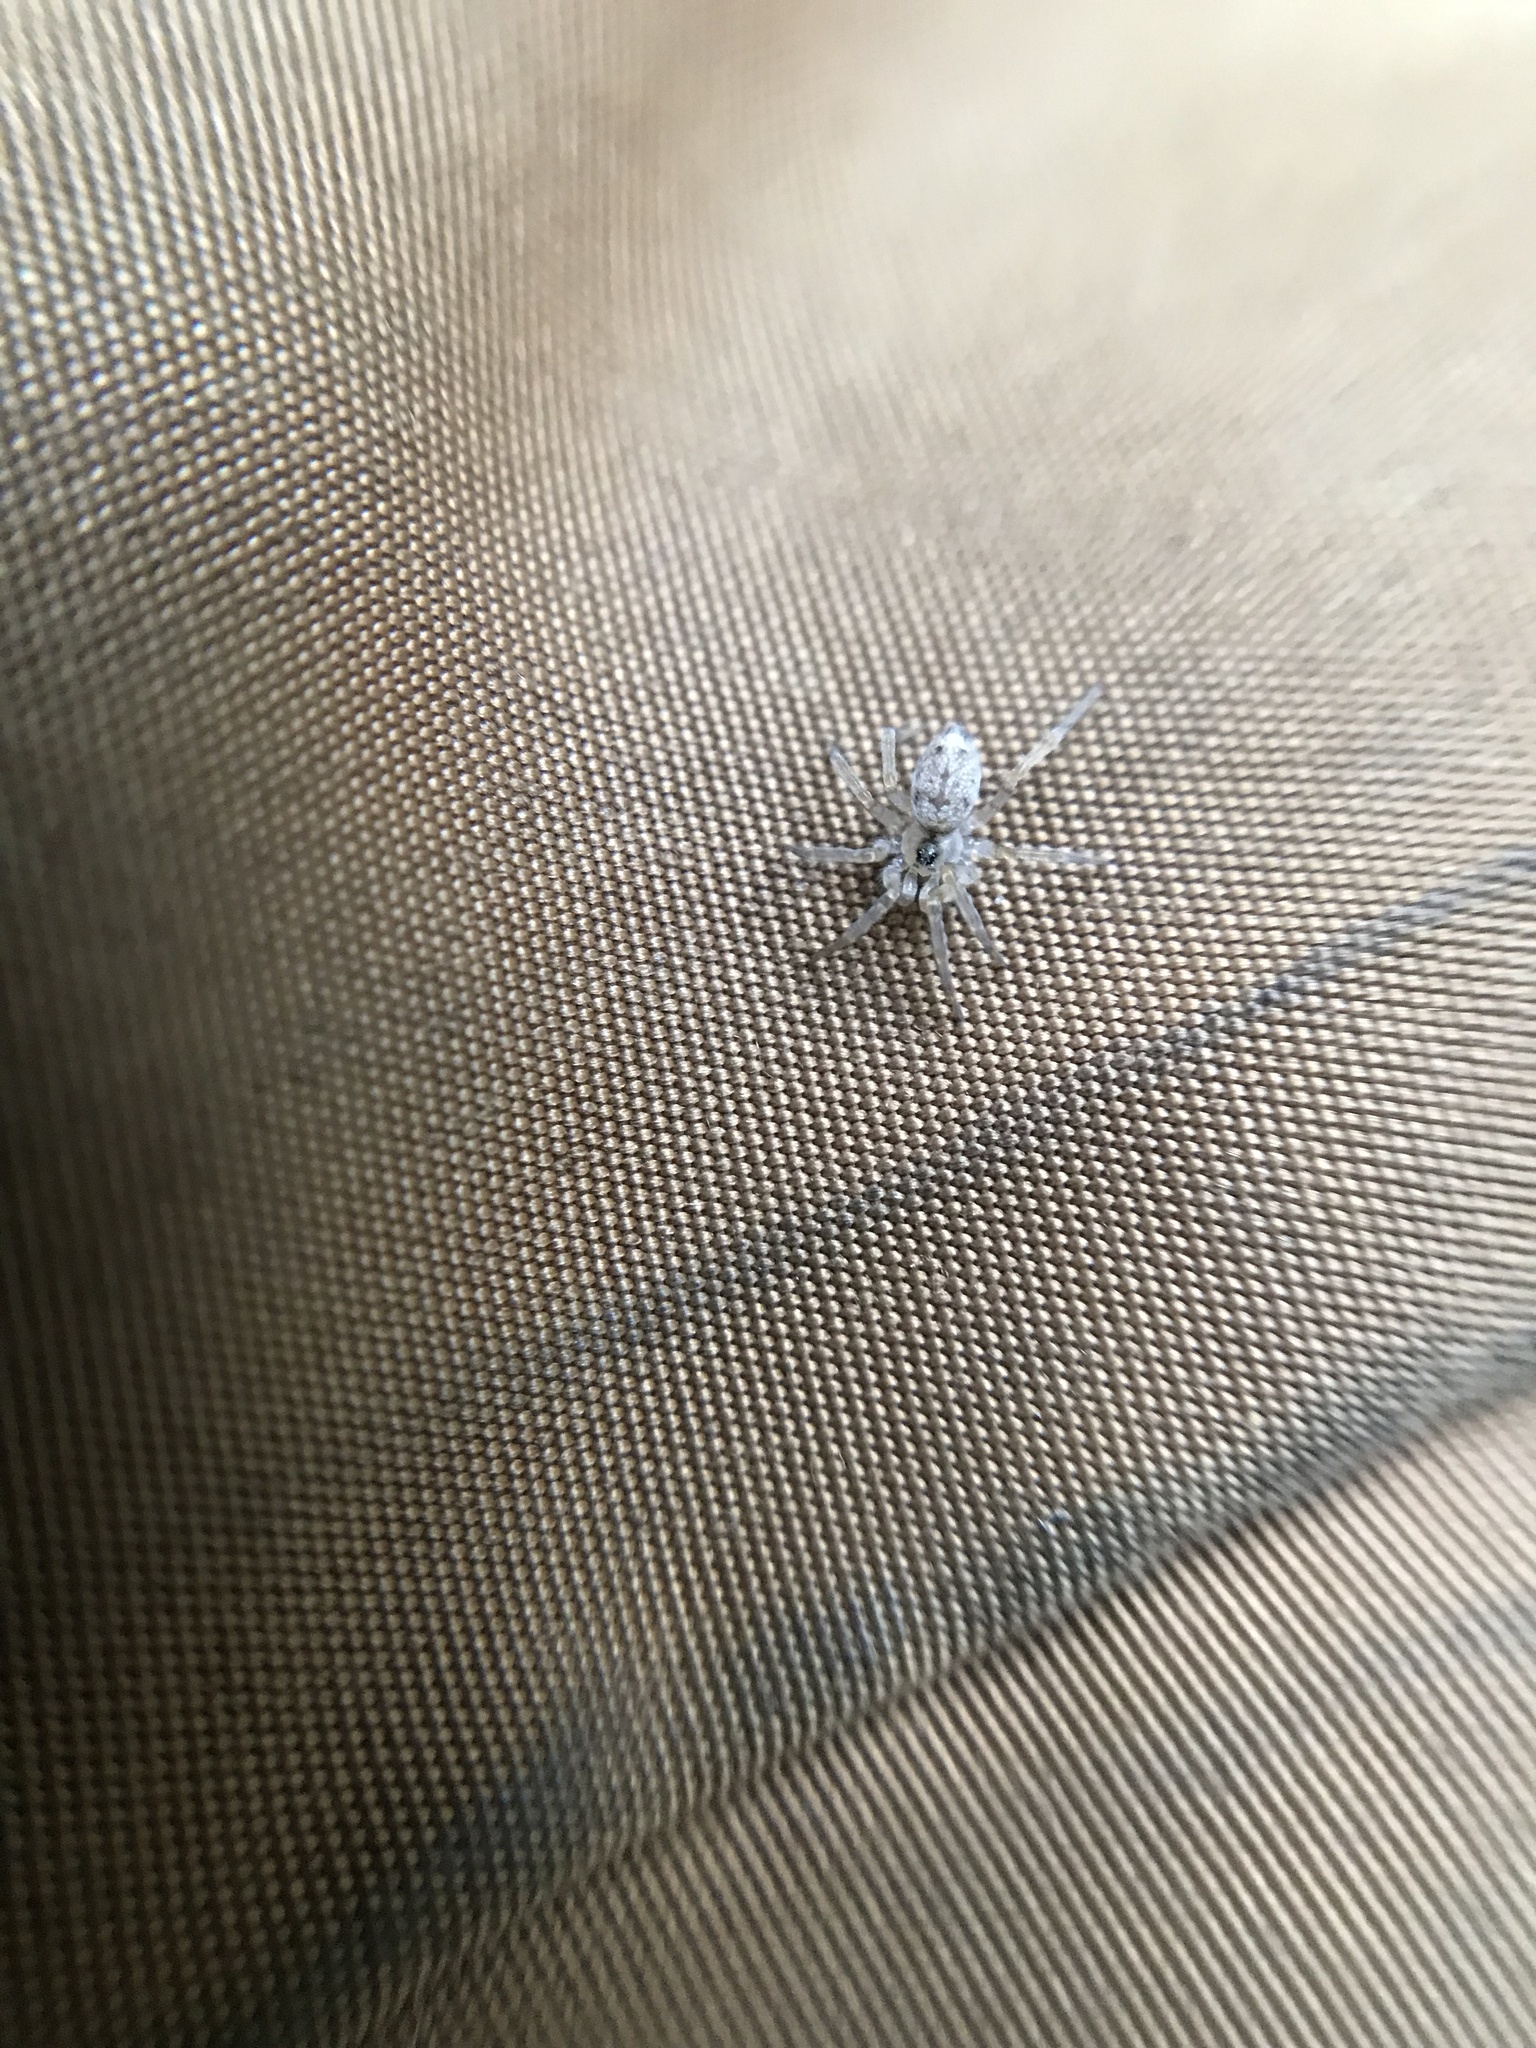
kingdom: Animalia
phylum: Arthropoda
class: Arachnida
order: Araneae
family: Oecobiidae
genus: Oecobius
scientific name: Oecobius navus
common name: Flatmesh weaver
